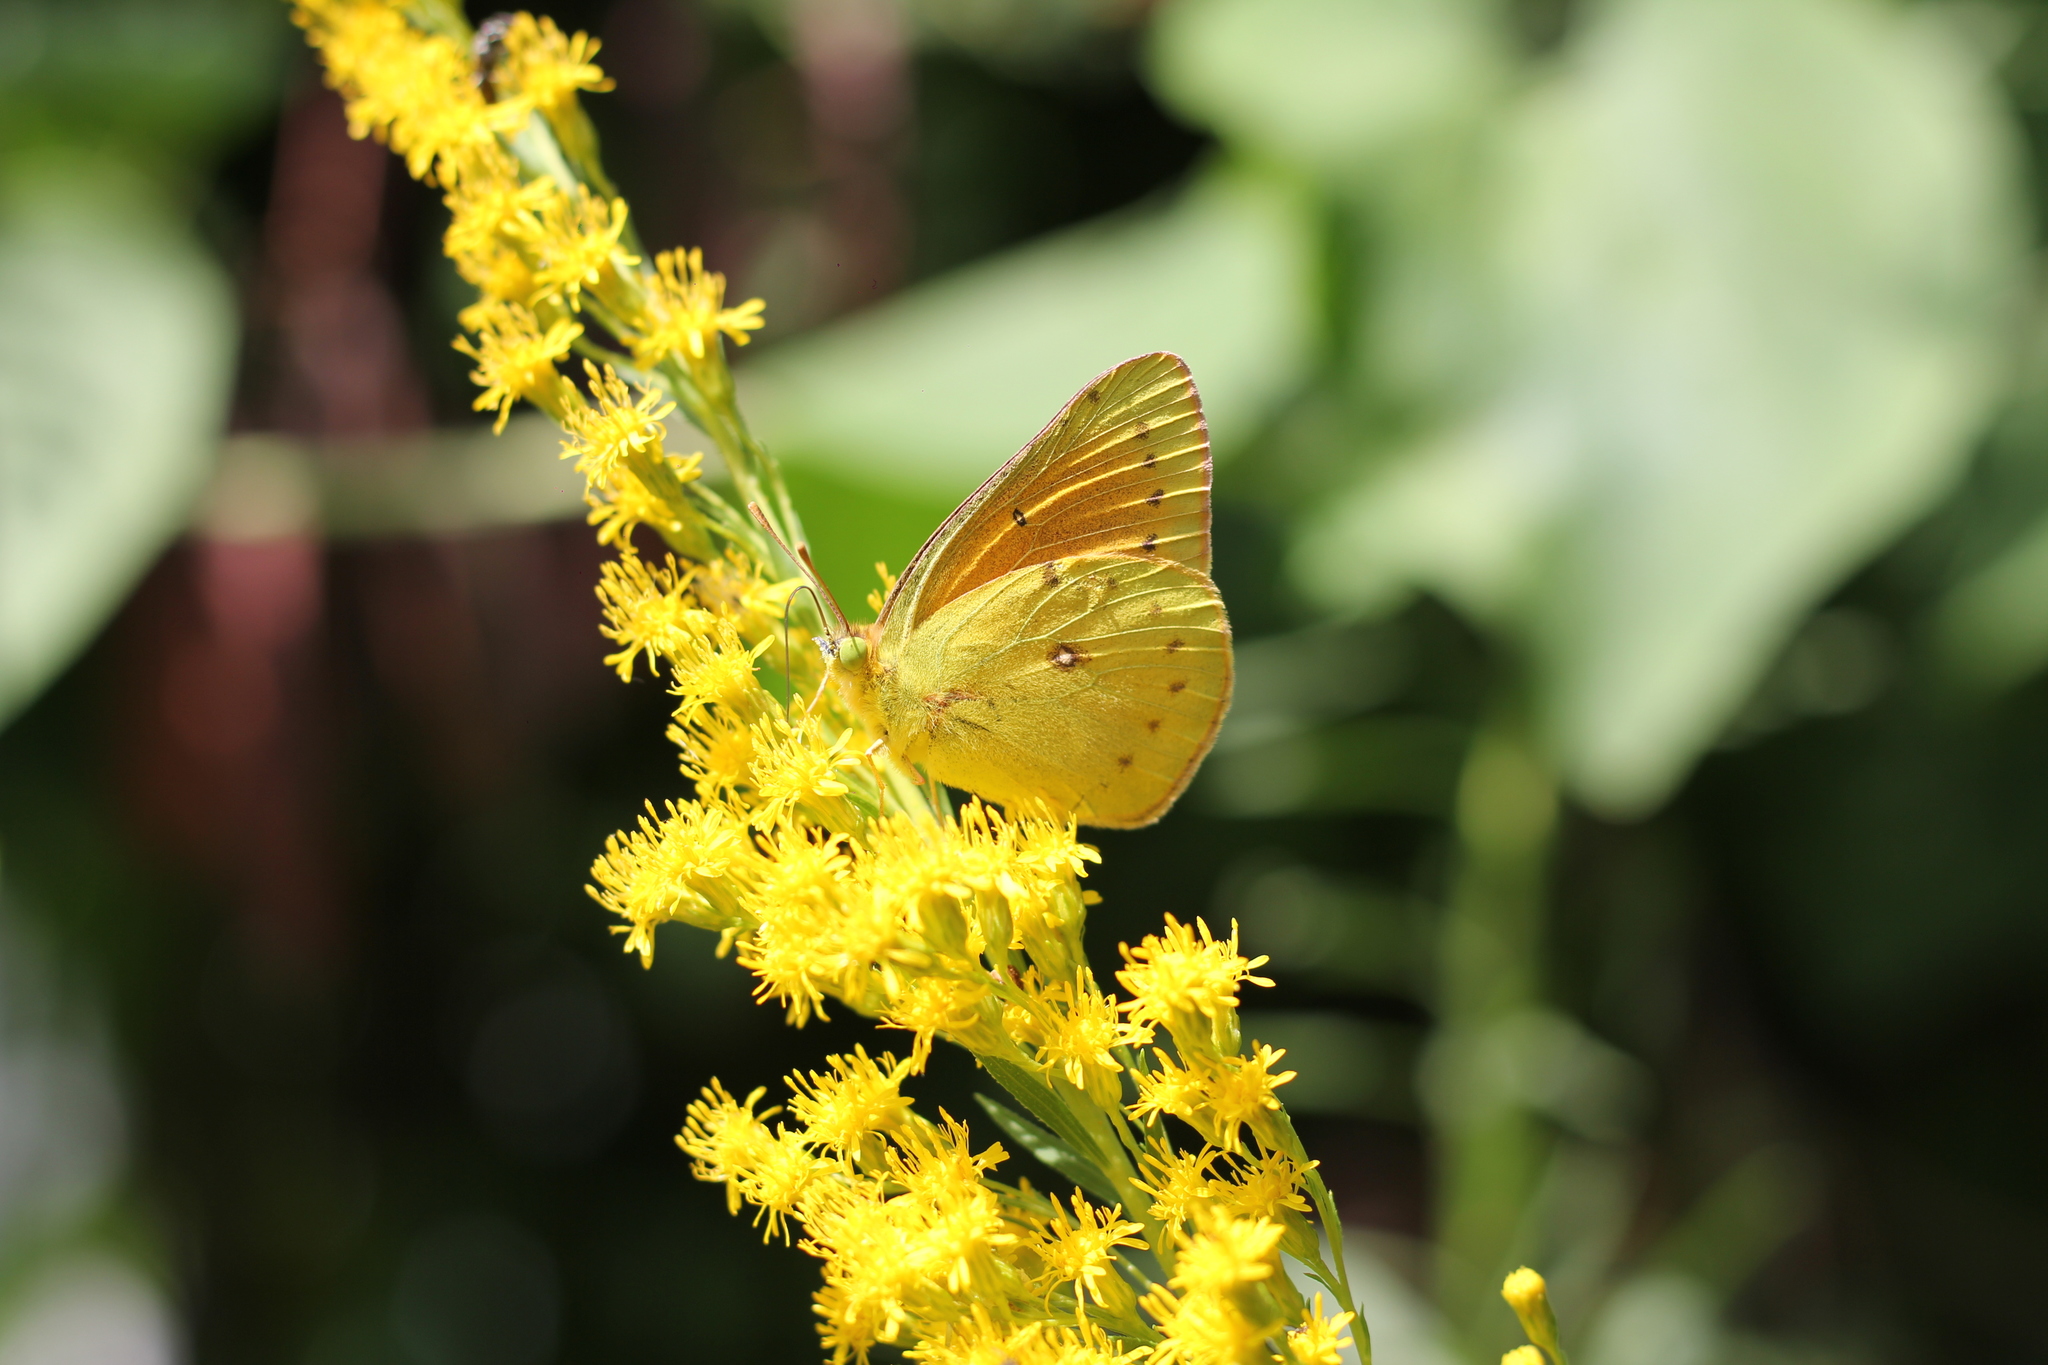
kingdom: Animalia
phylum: Arthropoda
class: Insecta
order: Lepidoptera
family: Pieridae
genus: Colias
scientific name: Colias lesbia
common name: Lesbia clouded yellow
